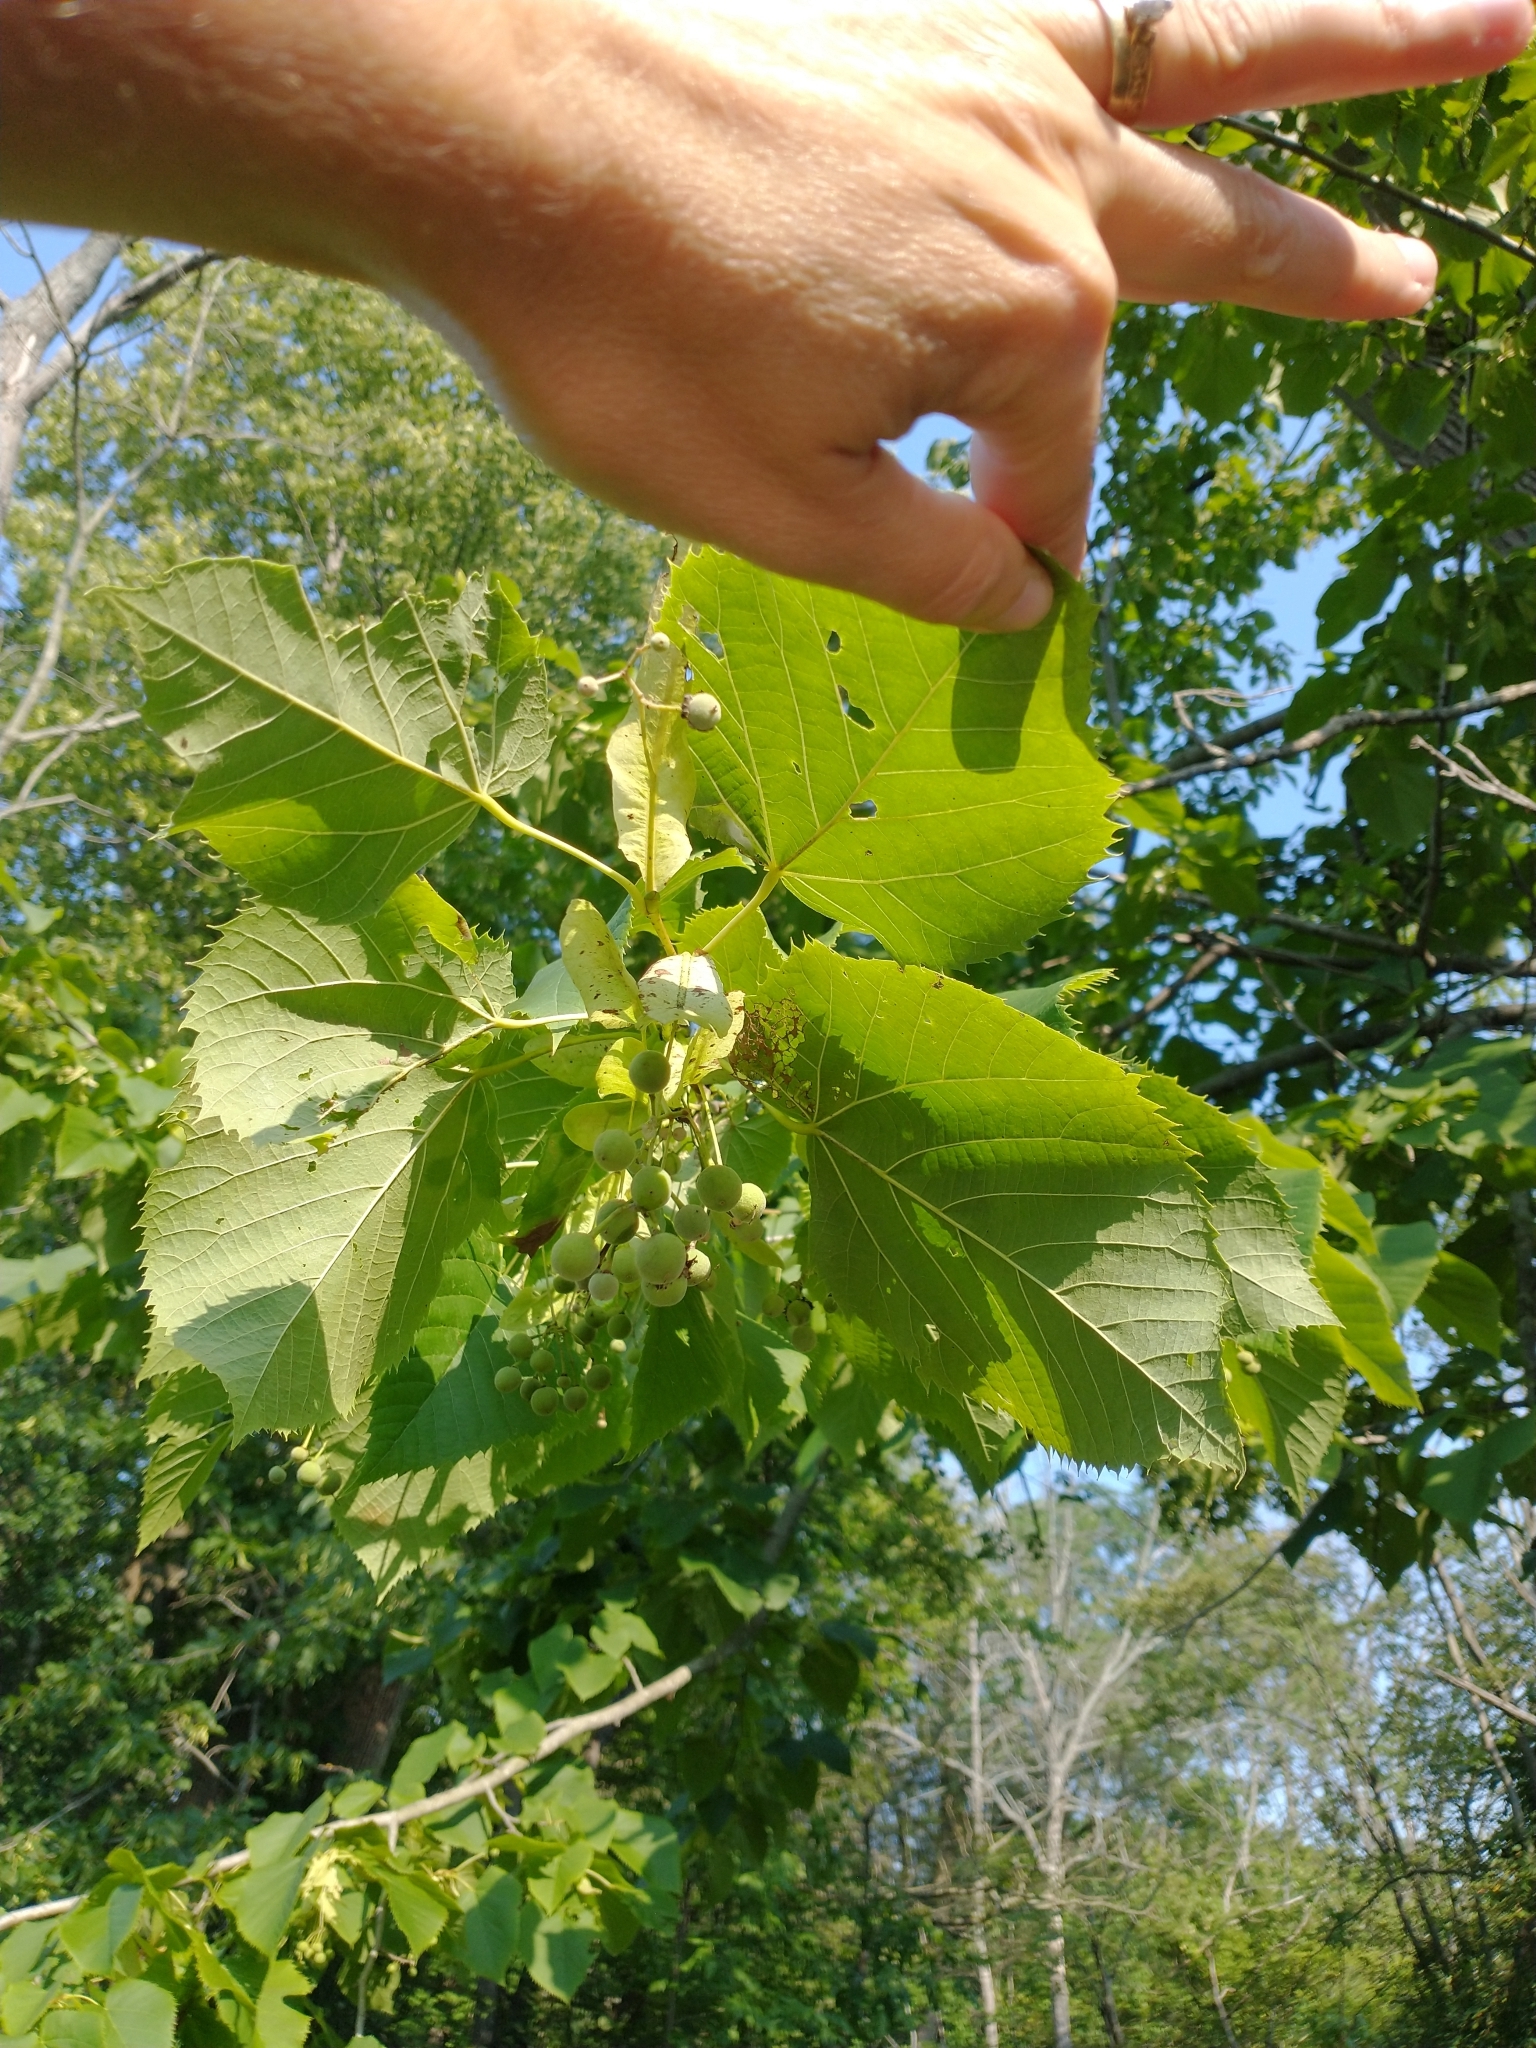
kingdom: Plantae
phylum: Tracheophyta
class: Magnoliopsida
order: Malvales
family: Malvaceae
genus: Tilia
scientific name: Tilia americana
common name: Basswood
